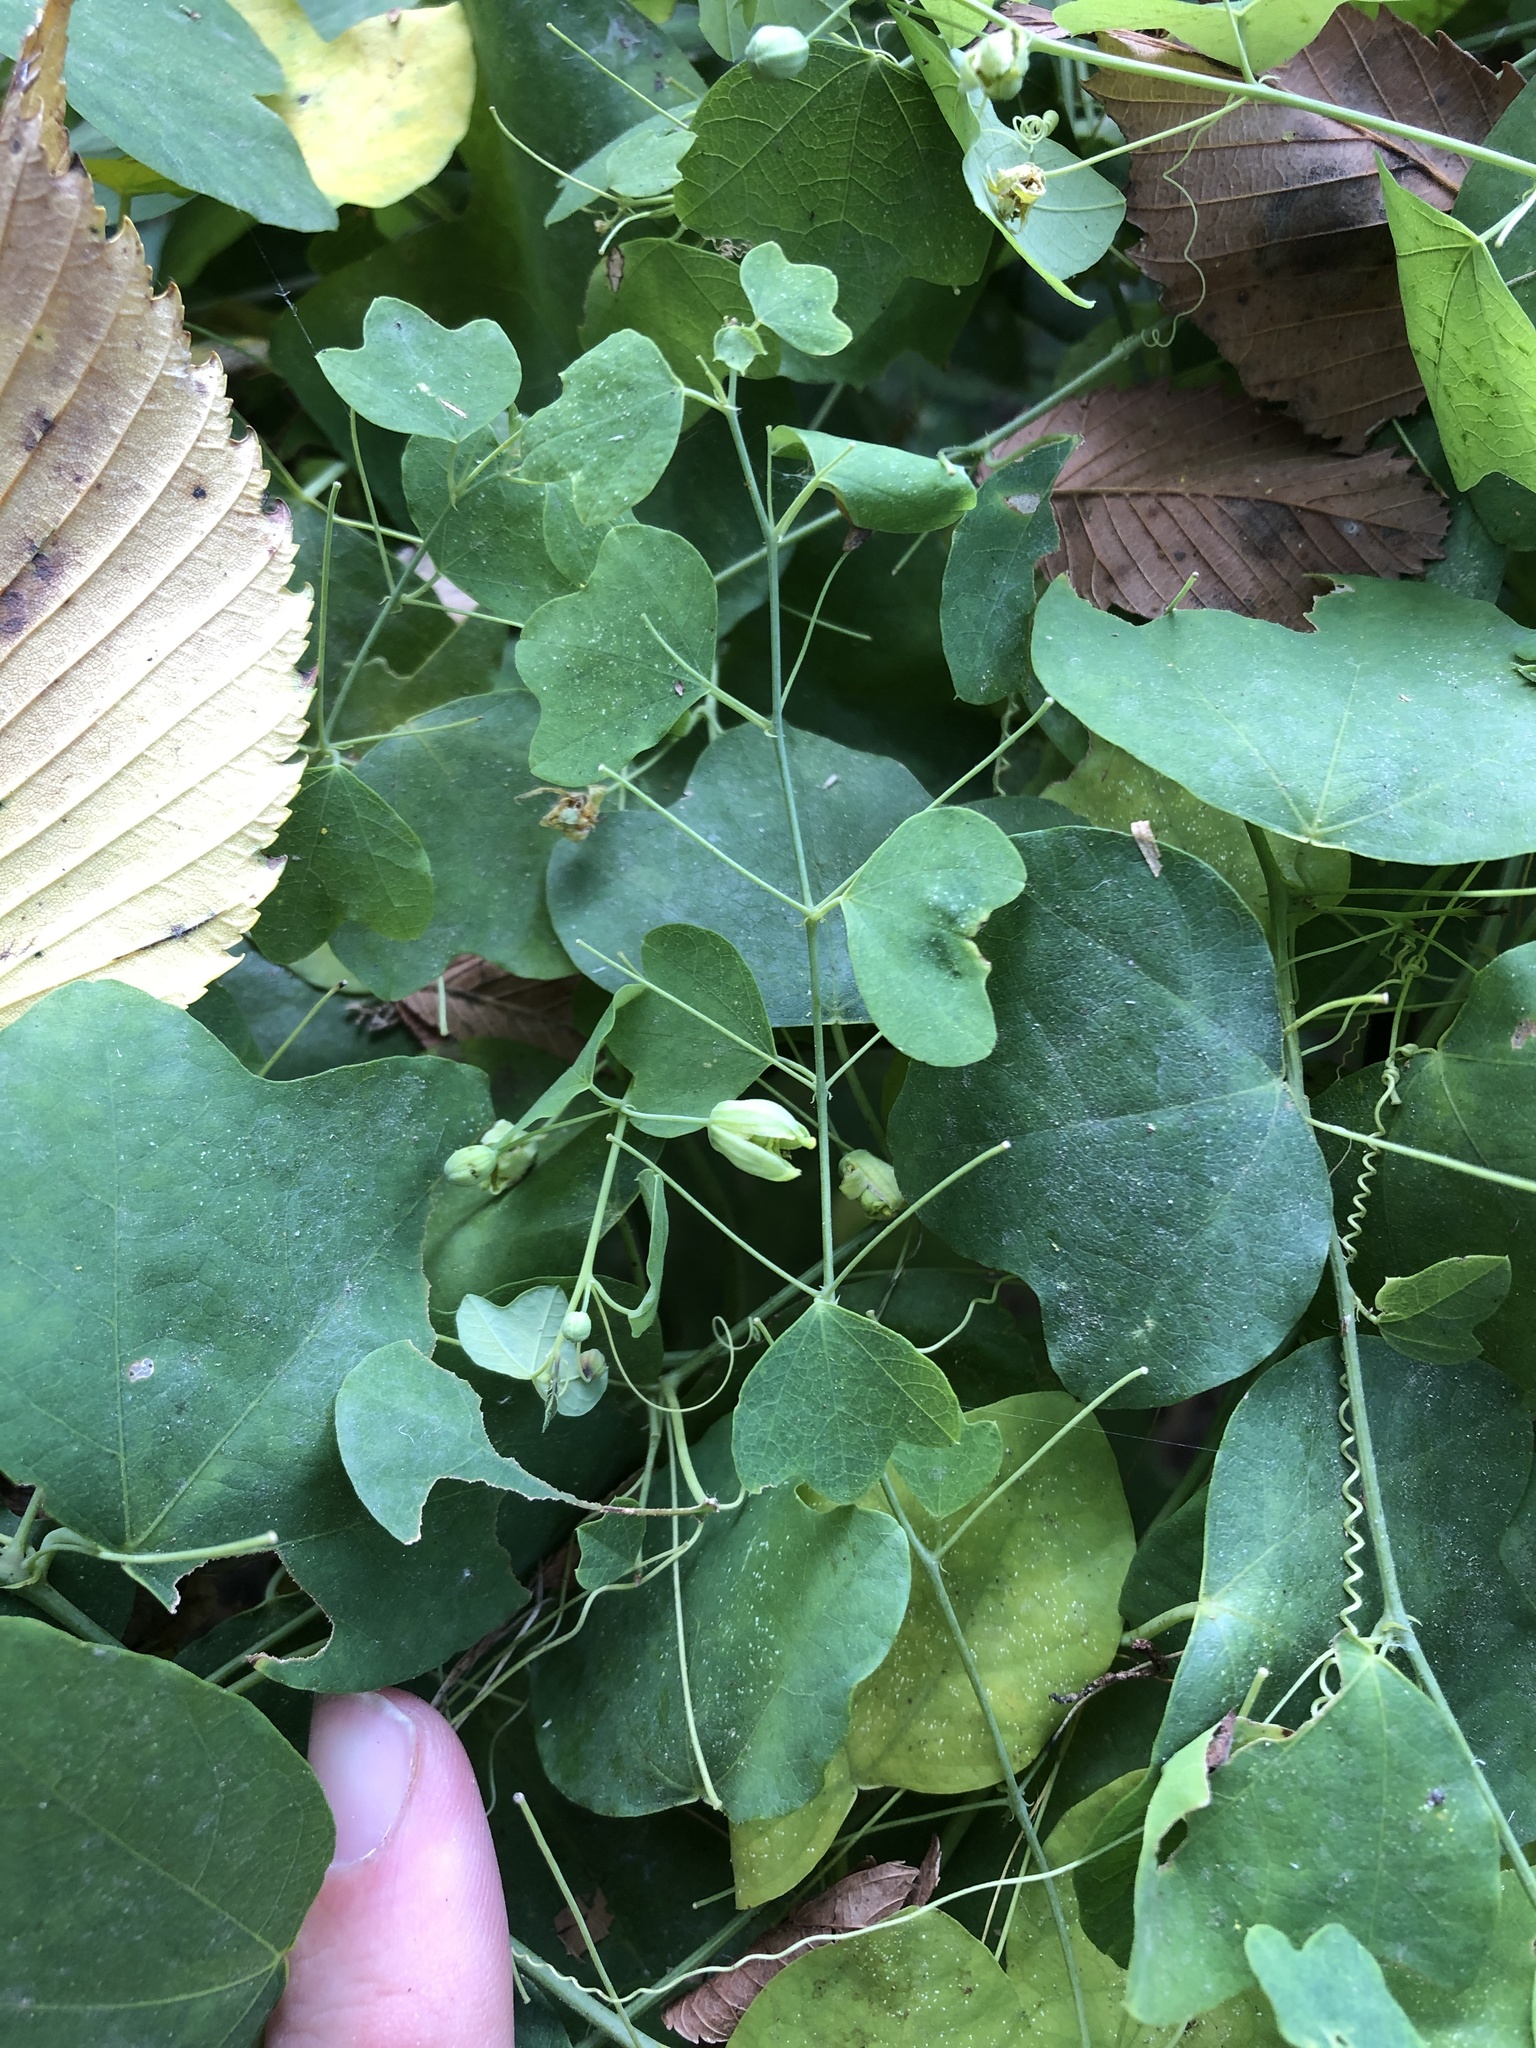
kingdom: Plantae
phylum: Tracheophyta
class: Magnoliopsida
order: Malpighiales
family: Passifloraceae
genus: Passiflora
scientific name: Passiflora lutea
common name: Yellow passionflower
